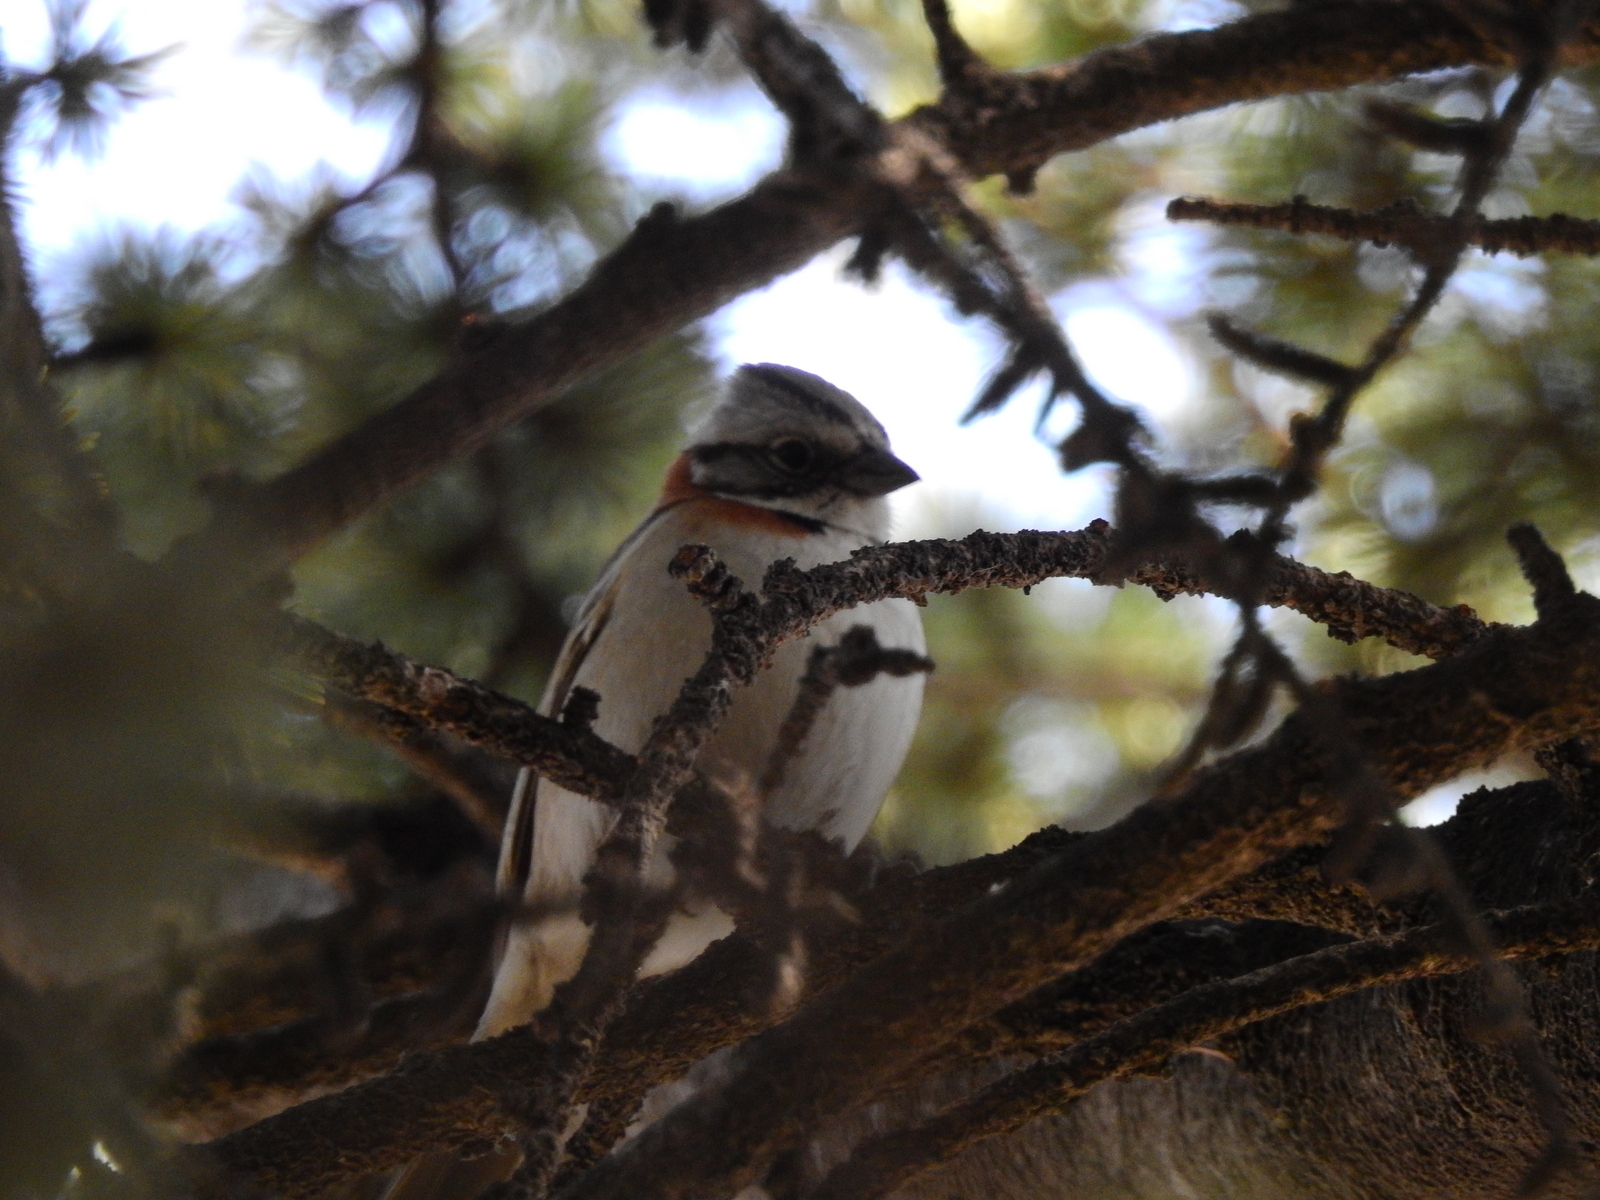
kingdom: Animalia
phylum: Chordata
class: Aves
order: Passeriformes
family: Passerellidae
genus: Zonotrichia
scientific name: Zonotrichia capensis
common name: Rufous-collared sparrow
